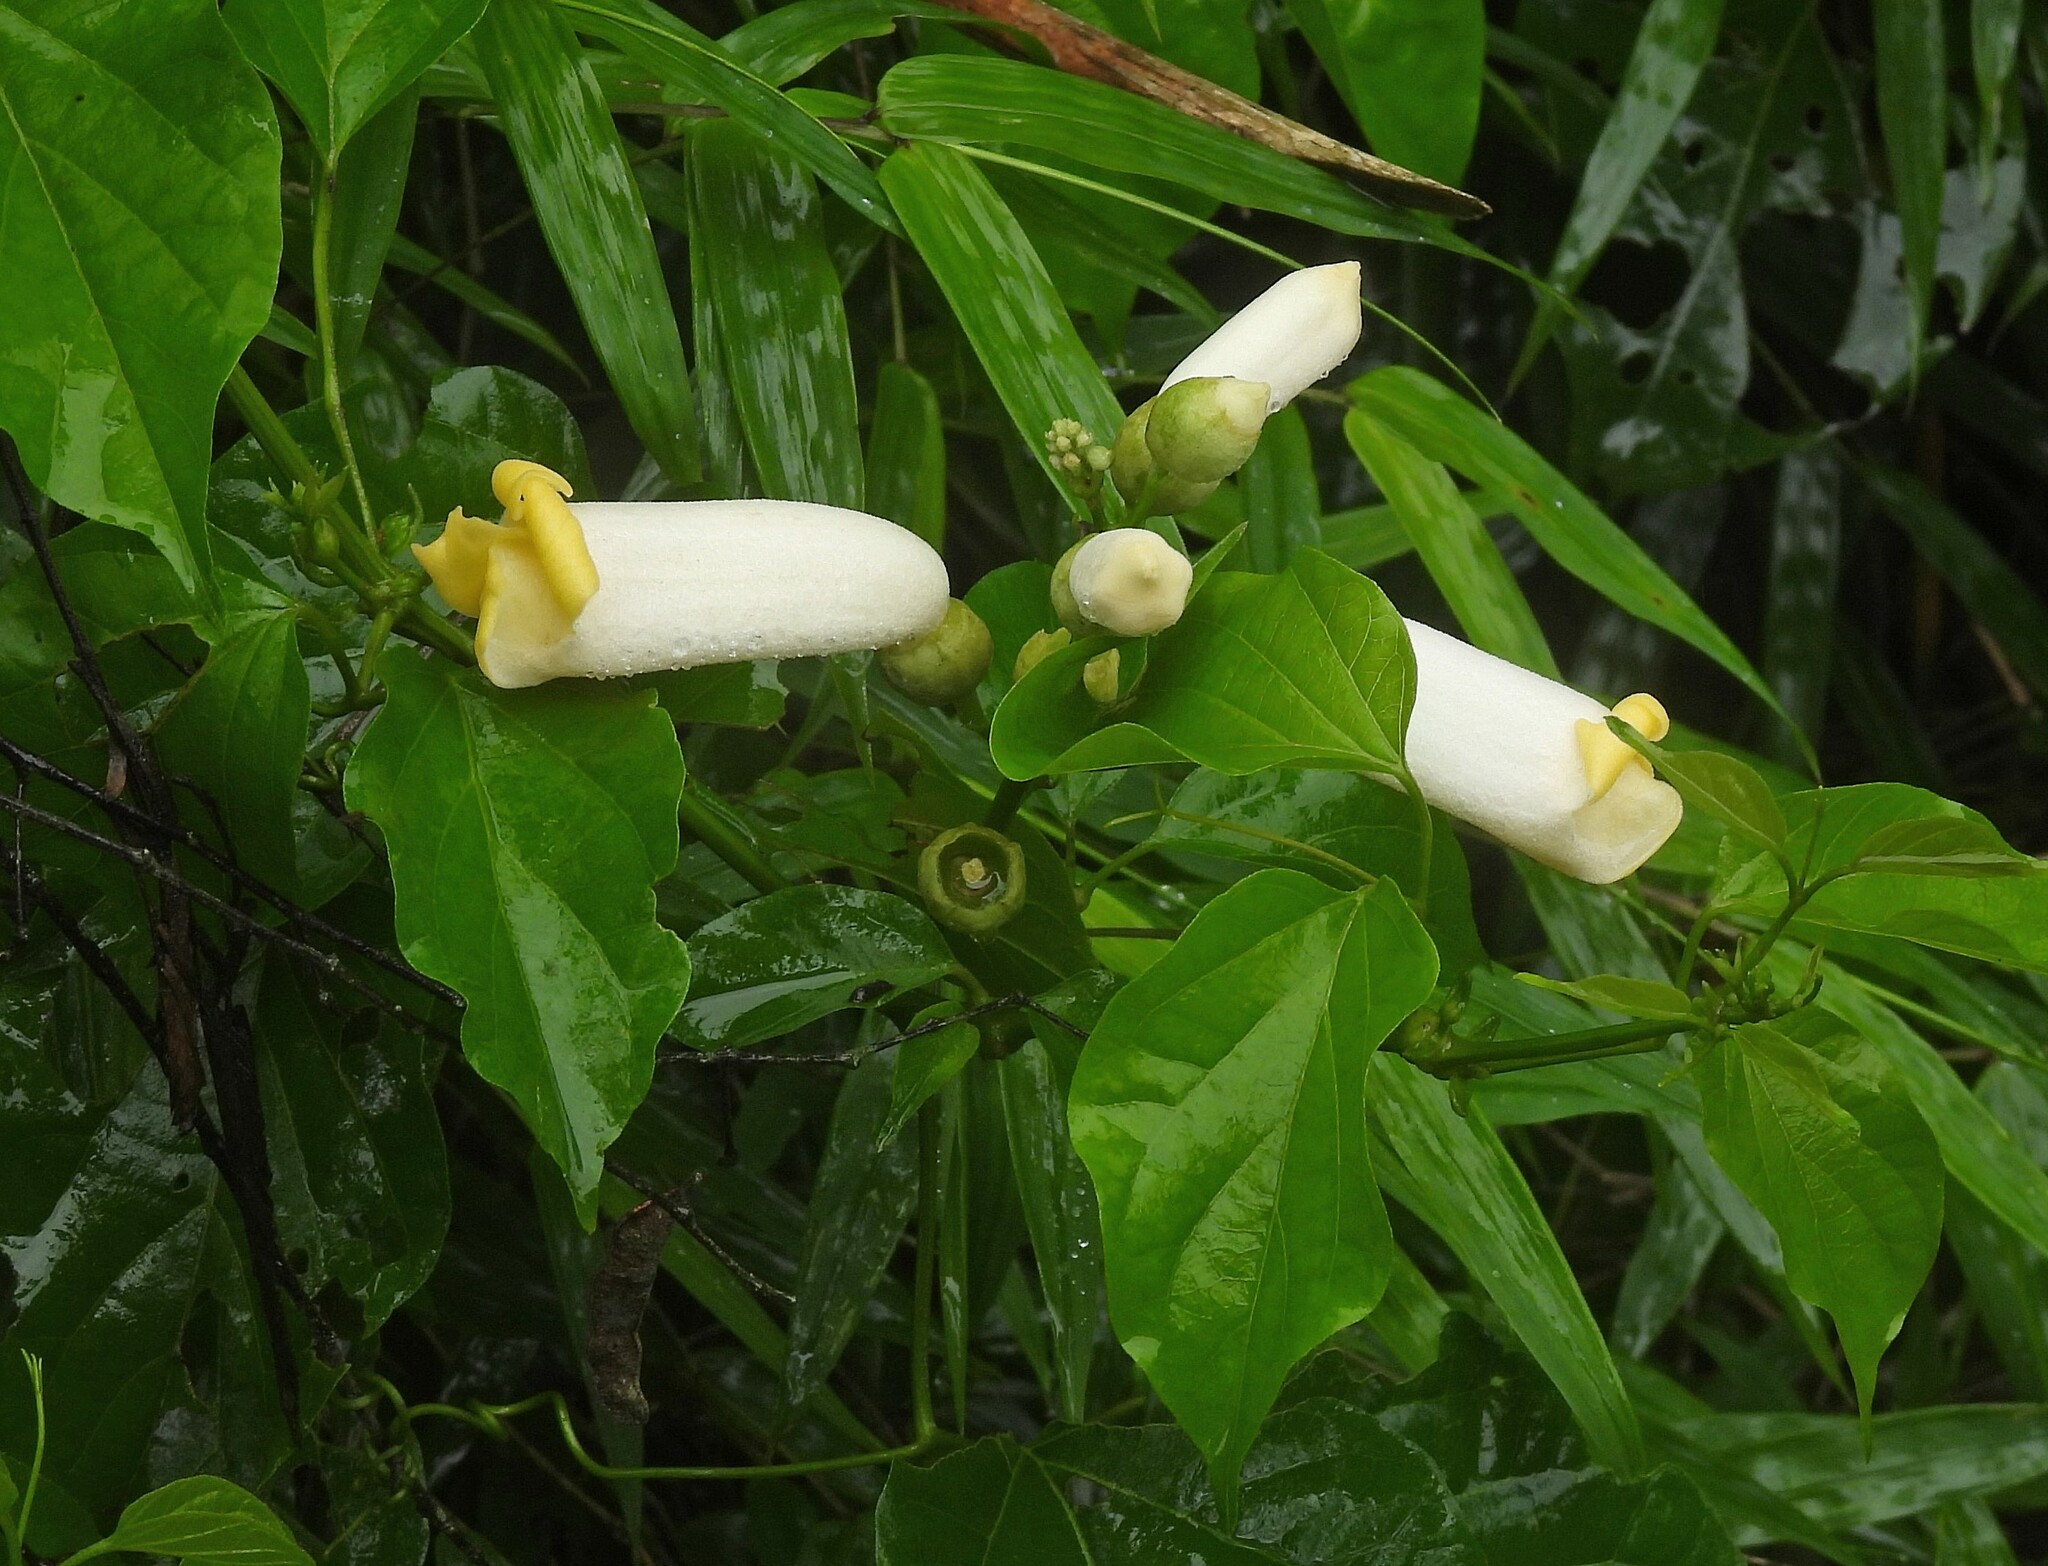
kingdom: Plantae
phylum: Tracheophyta
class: Magnoliopsida
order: Lamiales
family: Bignoniaceae
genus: Amphilophium
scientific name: Amphilophium crucigerum
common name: Monkey comb
